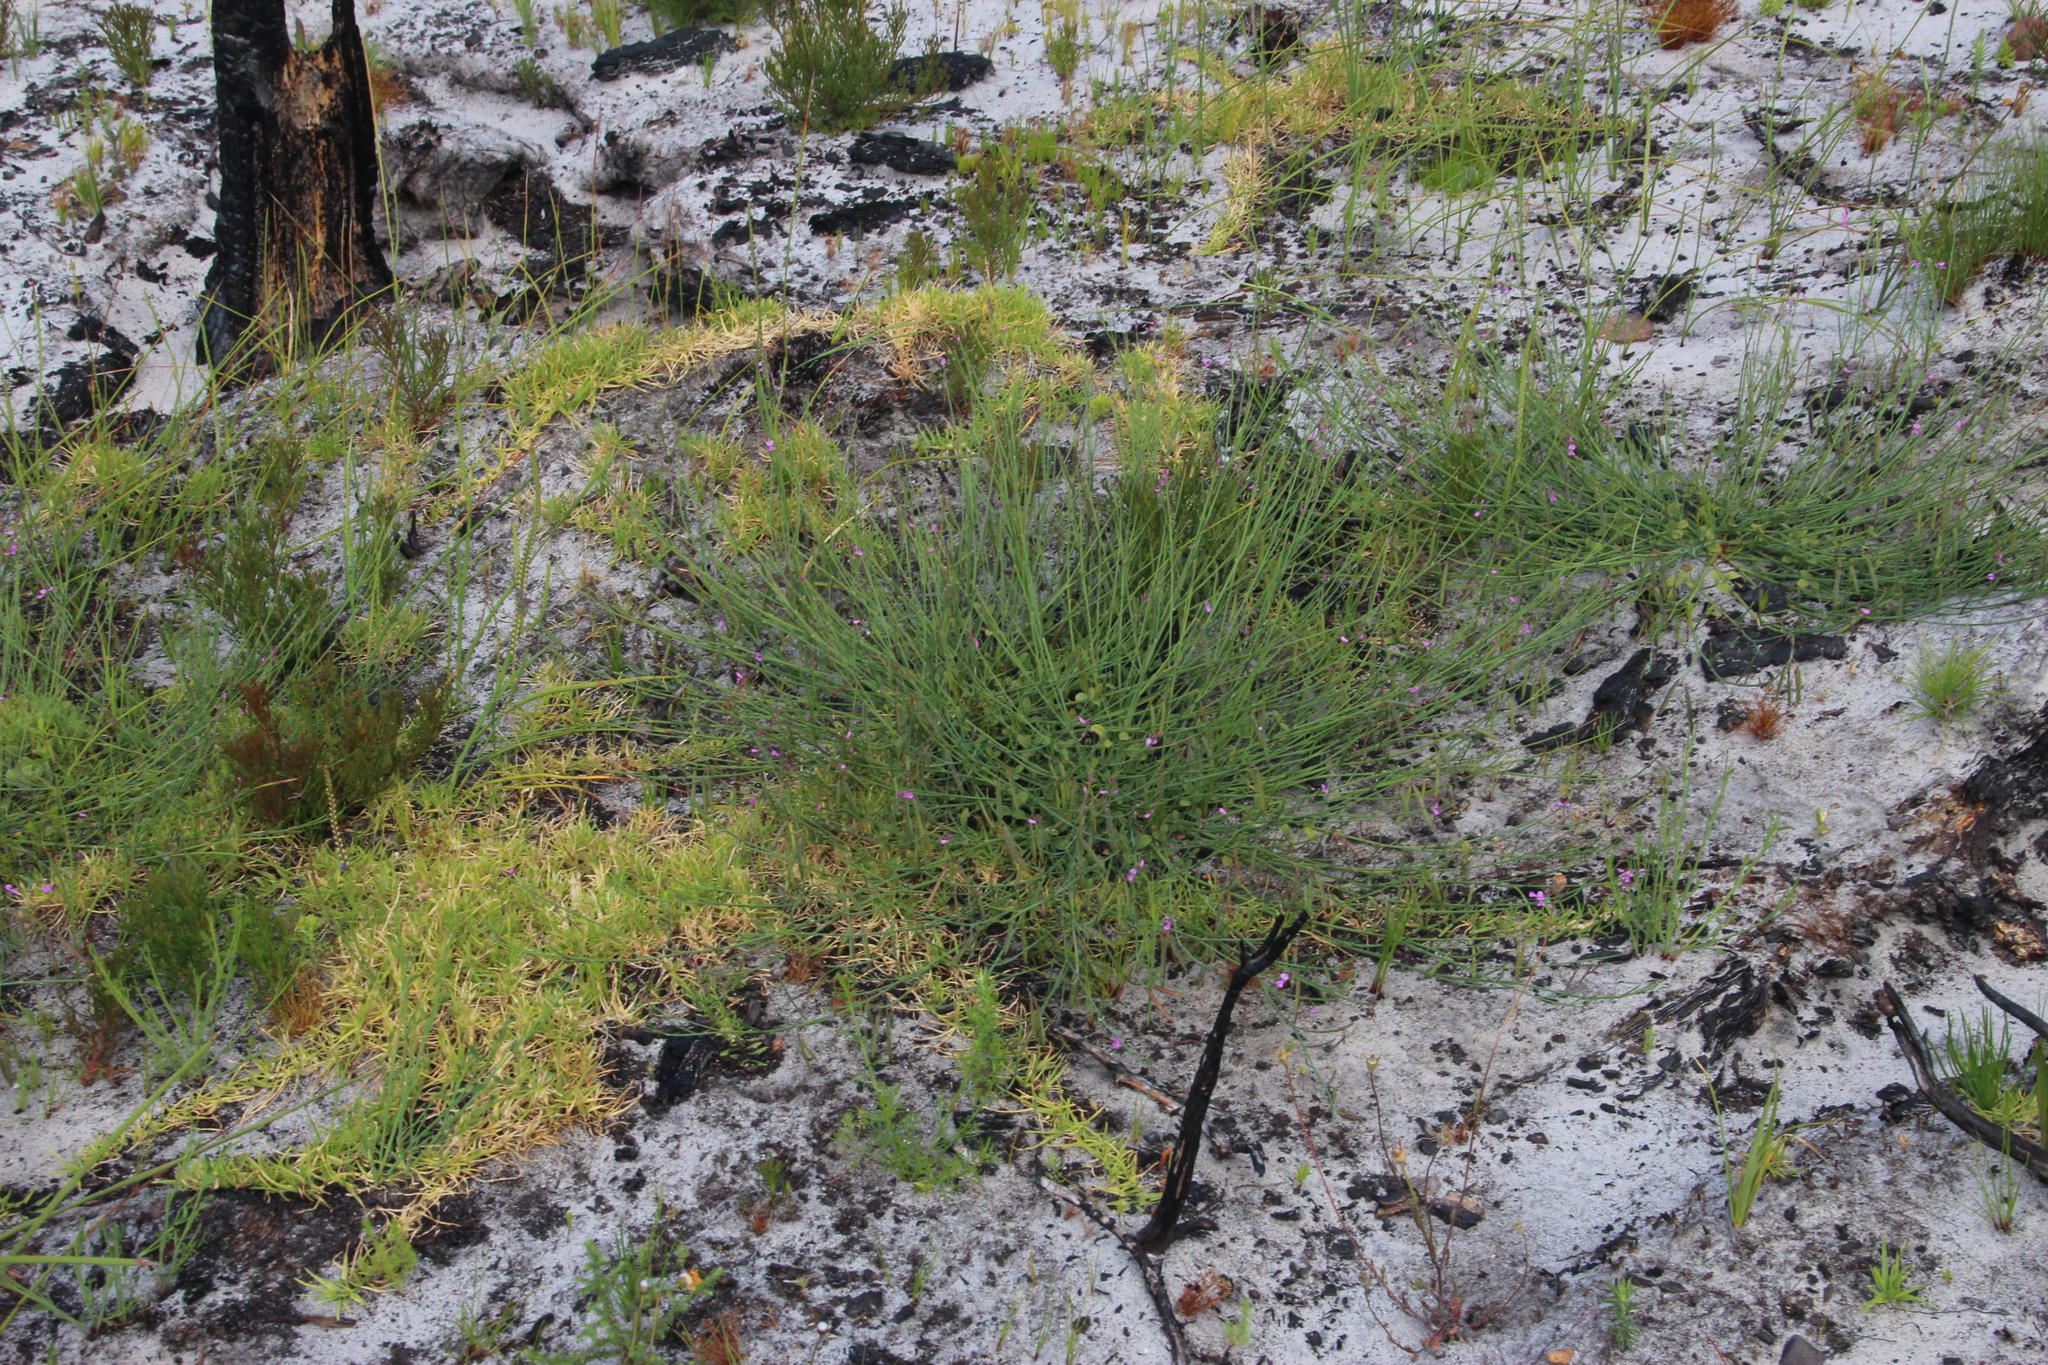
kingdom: Plantae
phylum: Tracheophyta
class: Magnoliopsida
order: Fabales
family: Fabaceae
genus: Indigofera
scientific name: Indigofera ionii
